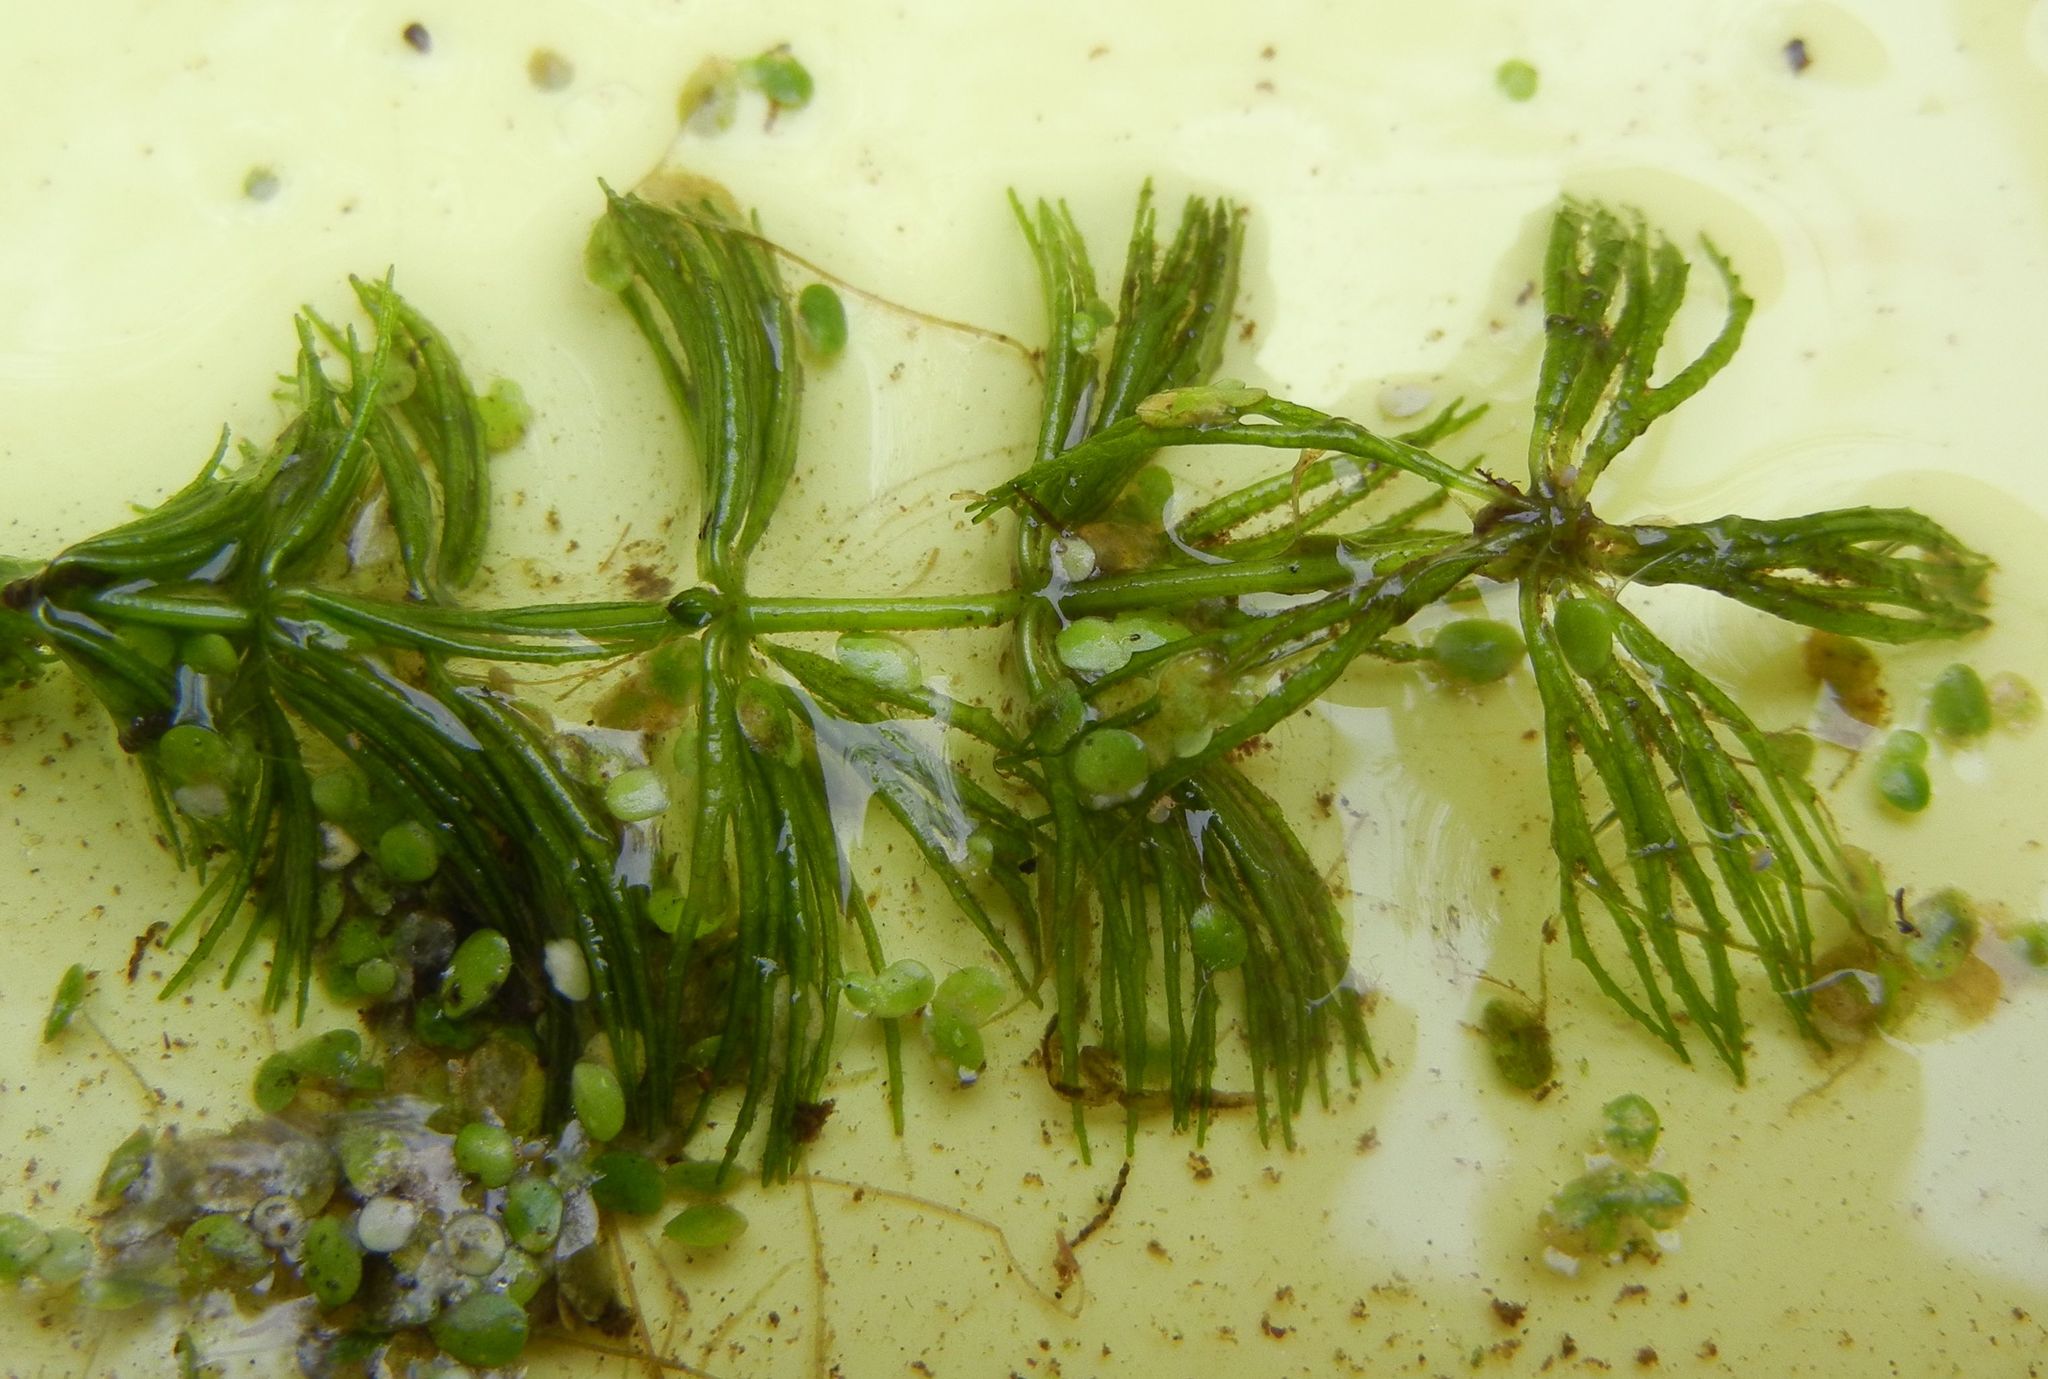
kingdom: Plantae
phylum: Tracheophyta
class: Magnoliopsida
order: Ceratophyllales
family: Ceratophyllaceae
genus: Ceratophyllum
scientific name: Ceratophyllum demersum
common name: Rigid hornwort
